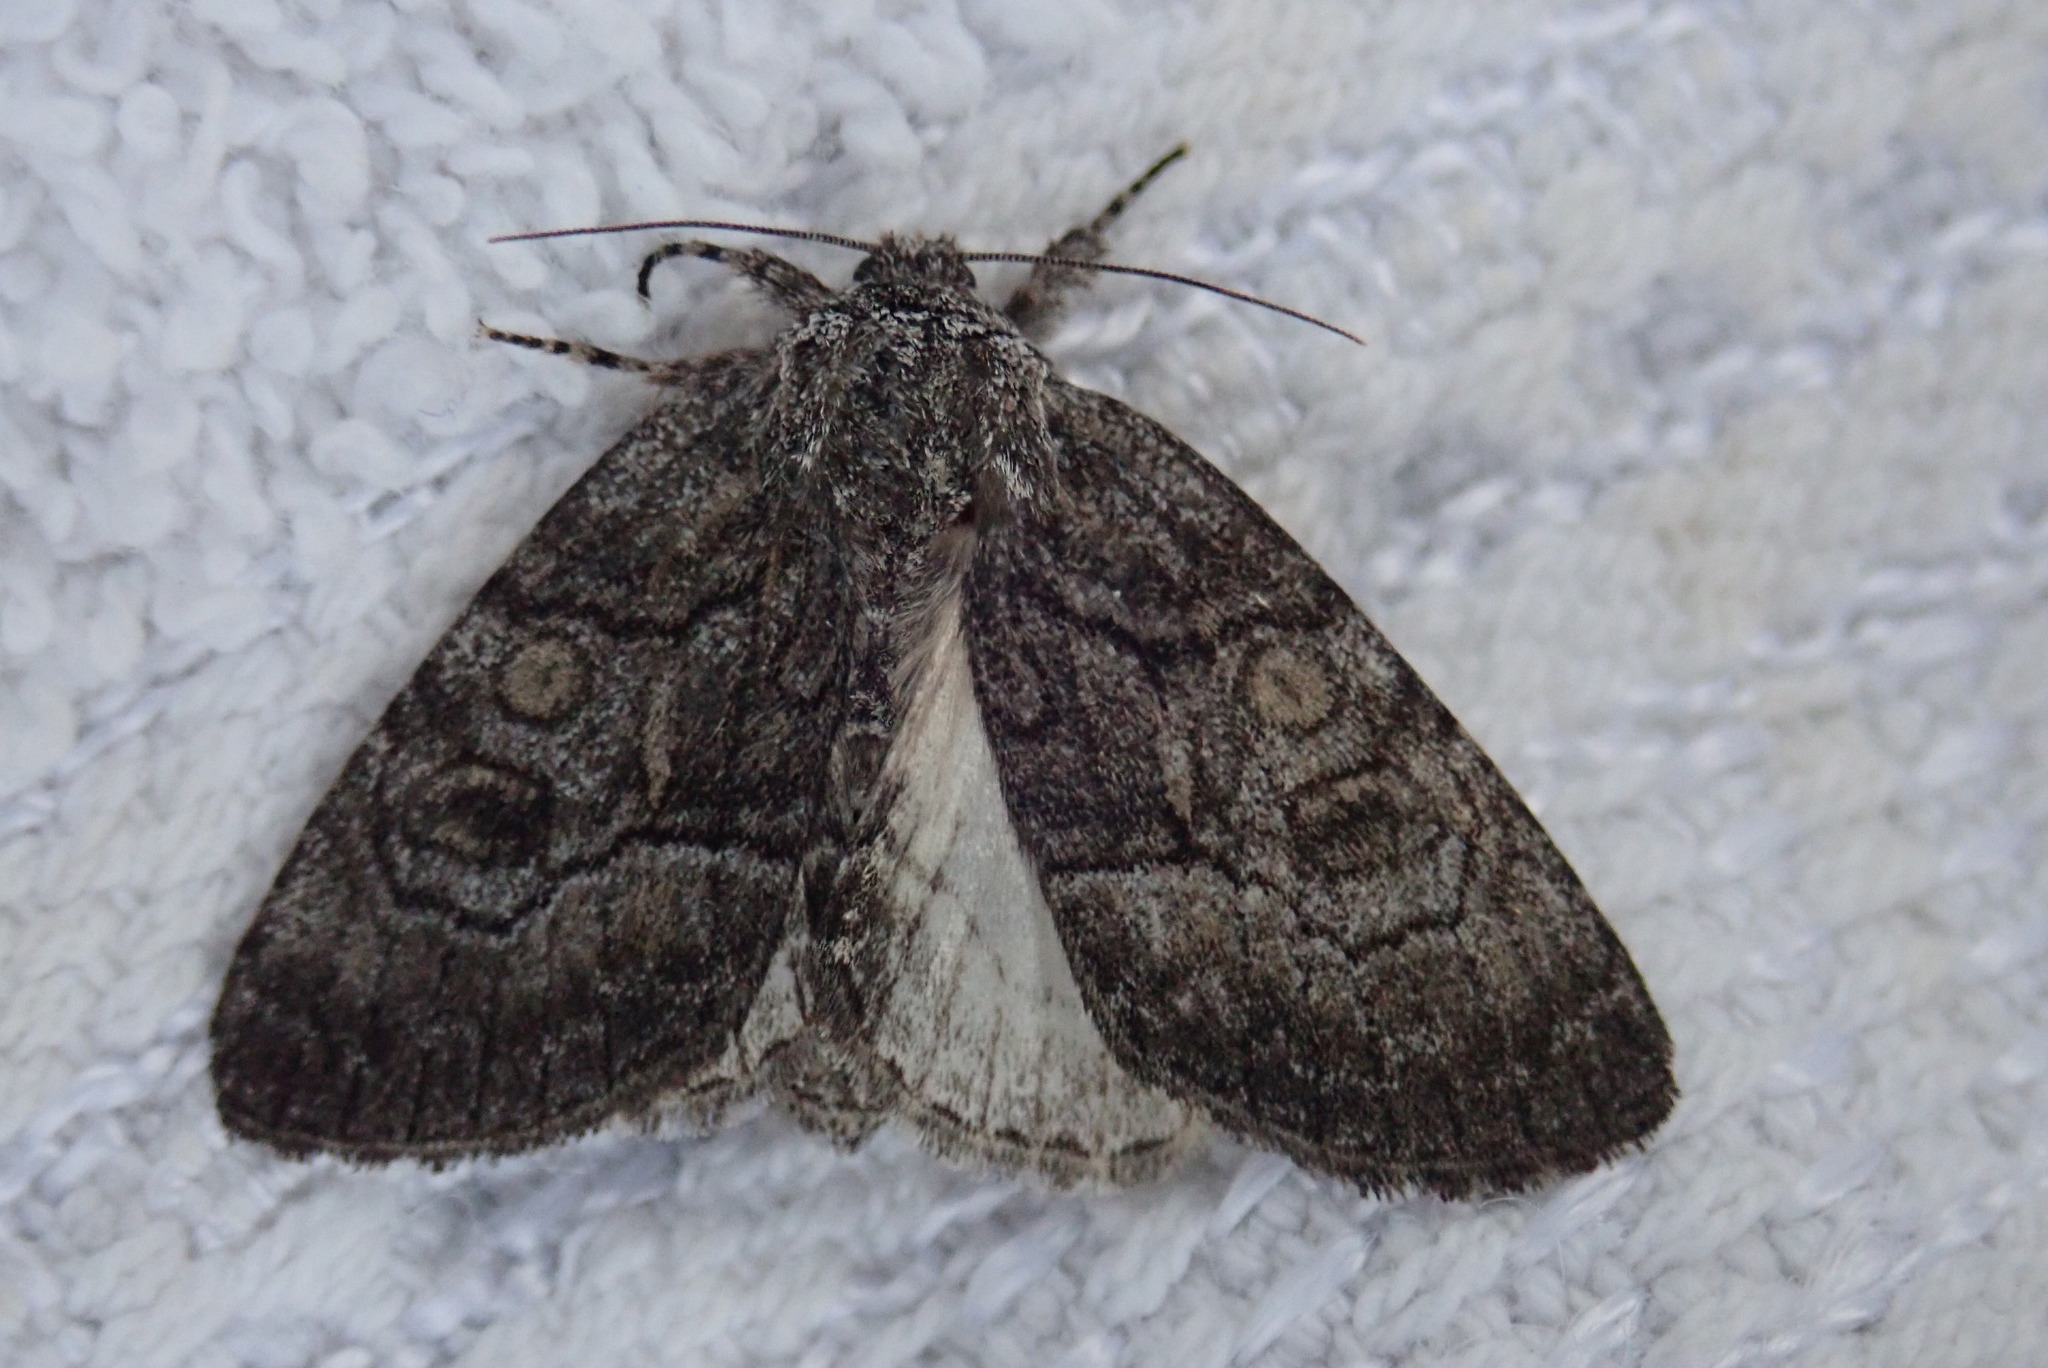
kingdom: Animalia
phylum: Arthropoda
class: Insecta
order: Lepidoptera
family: Noctuidae
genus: Raphia
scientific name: Raphia frater
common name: Brother
